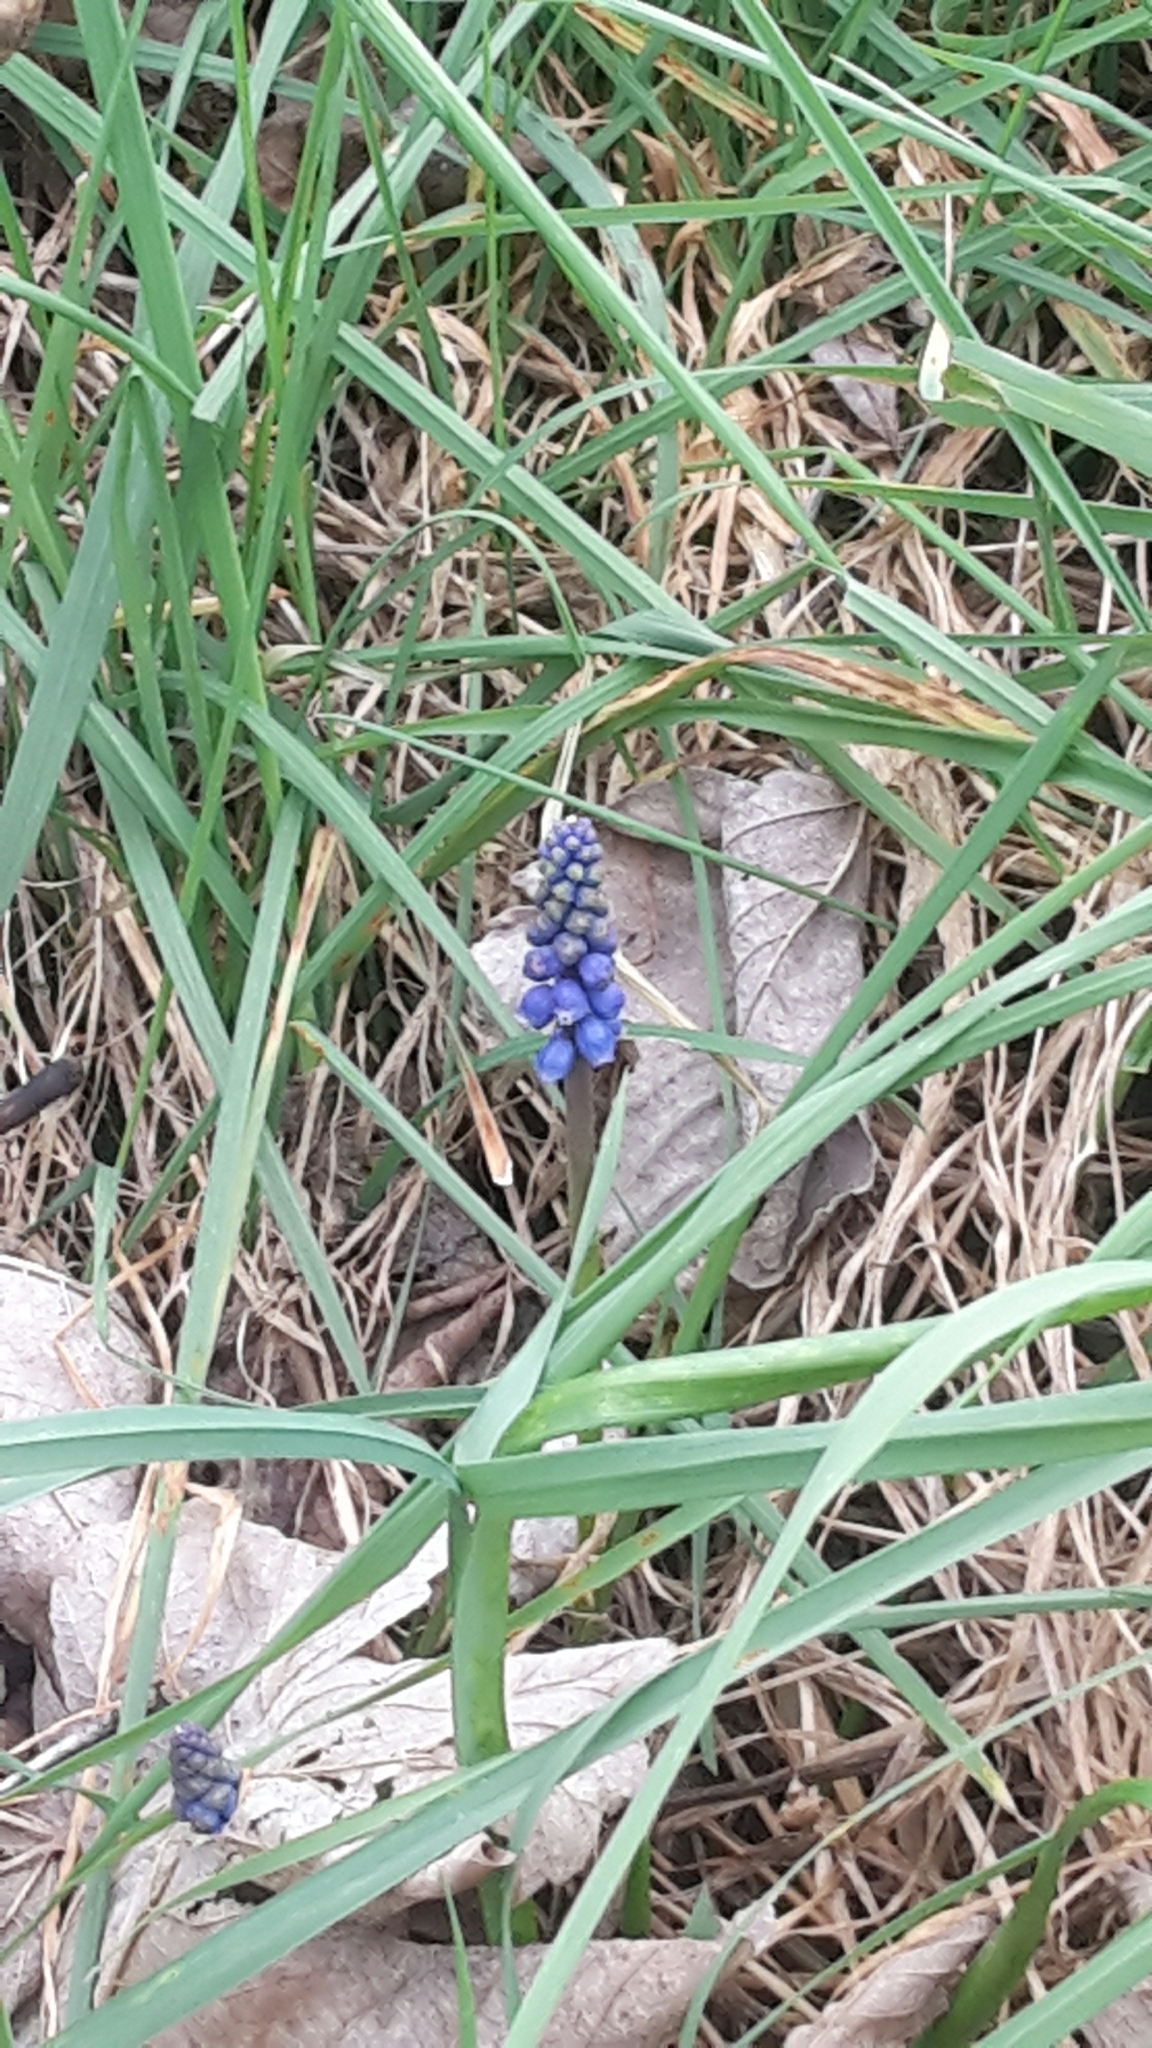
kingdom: Plantae
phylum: Tracheophyta
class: Liliopsida
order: Asparagales
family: Asparagaceae
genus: Muscari
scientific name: Muscari armeniacum
